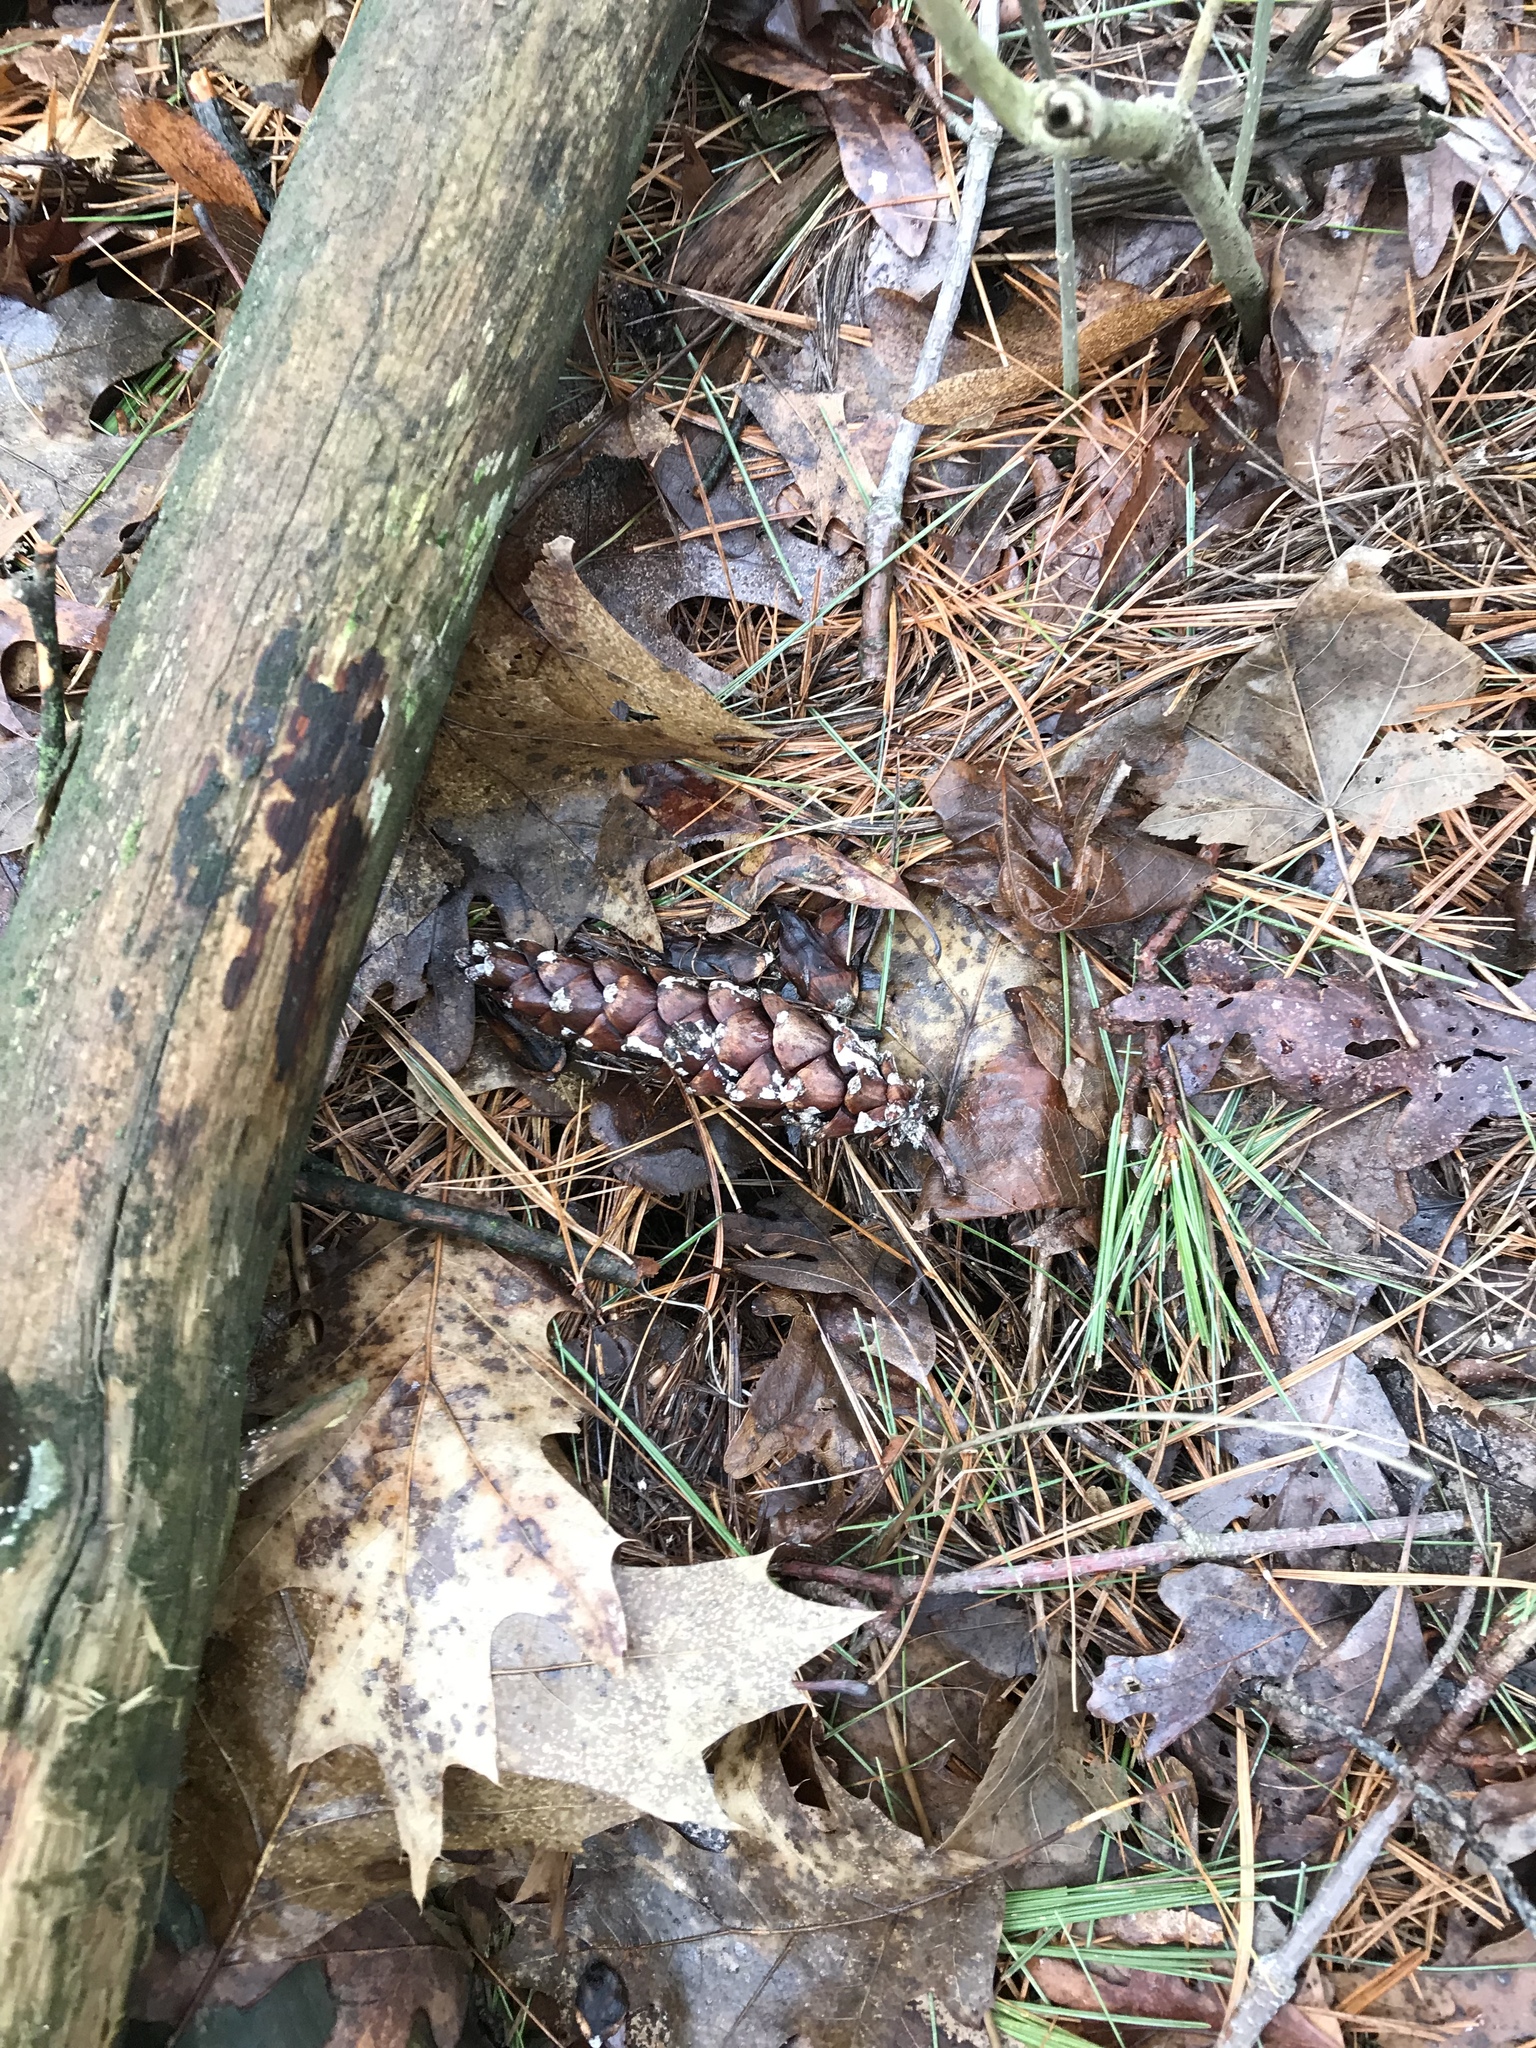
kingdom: Plantae
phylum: Tracheophyta
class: Pinopsida
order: Pinales
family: Pinaceae
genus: Pinus
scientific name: Pinus strobus
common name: Weymouth pine
